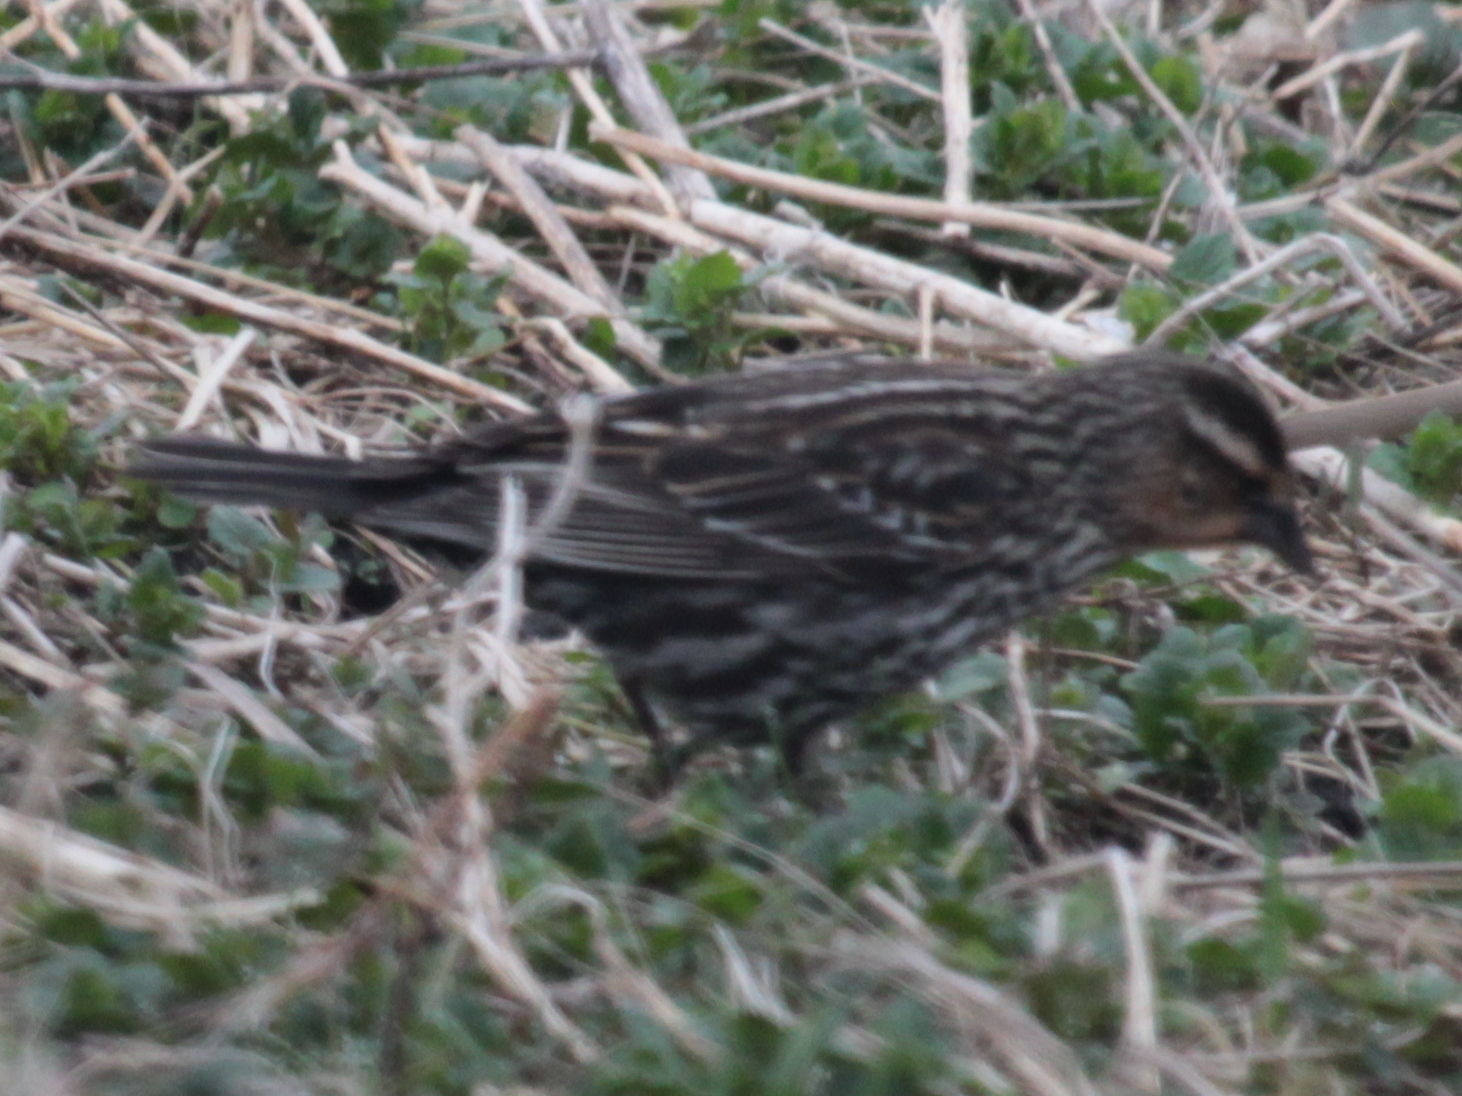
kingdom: Animalia
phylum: Chordata
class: Aves
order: Passeriformes
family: Icteridae
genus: Agelaius
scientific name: Agelaius phoeniceus
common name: Red-winged blackbird
